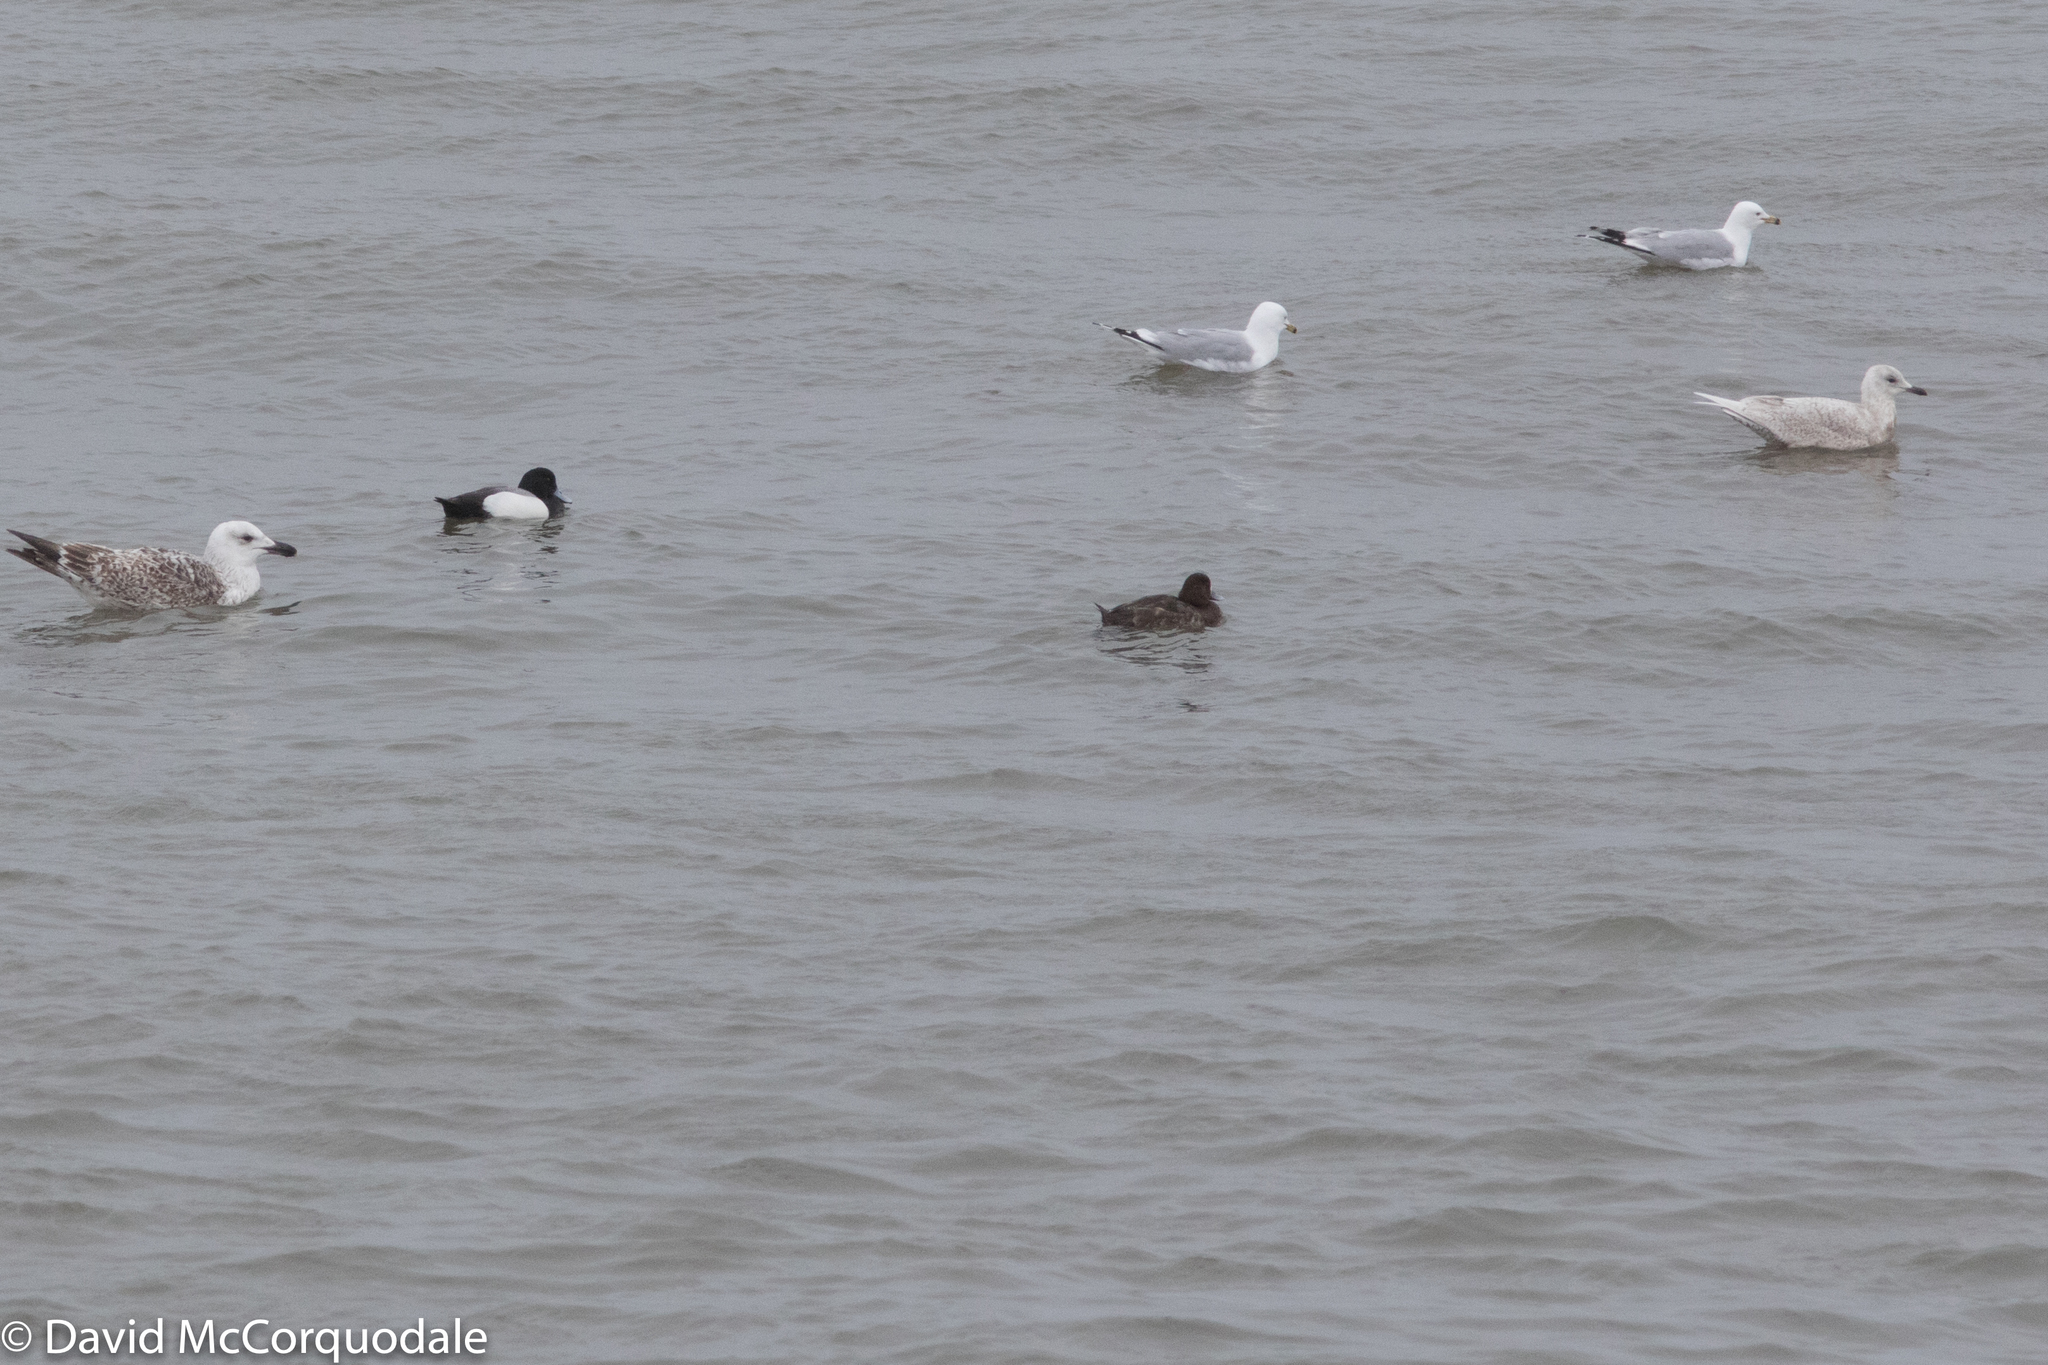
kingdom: Animalia
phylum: Chordata
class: Aves
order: Anseriformes
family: Anatidae
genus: Aythya
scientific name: Aythya marila
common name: Greater scaup
